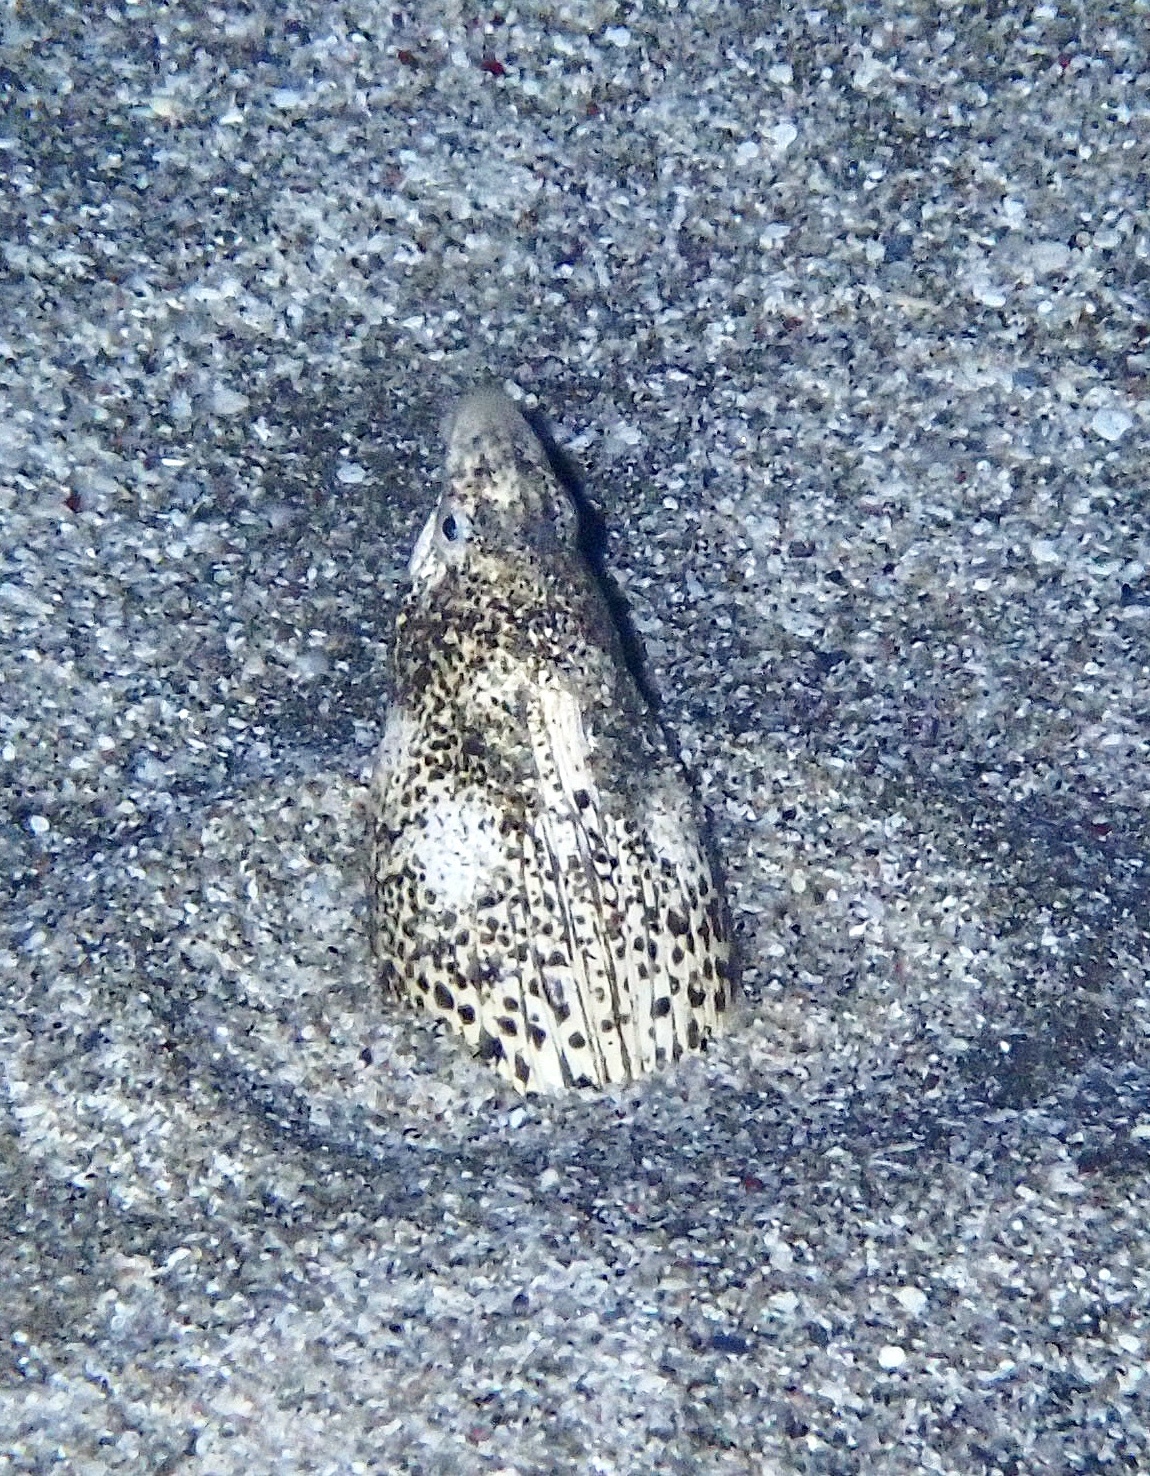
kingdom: Animalia
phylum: Chordata
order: Anguilliformes
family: Ophichthidae
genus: Callechelys
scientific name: Callechelys marmorata
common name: Marbled snake eel
